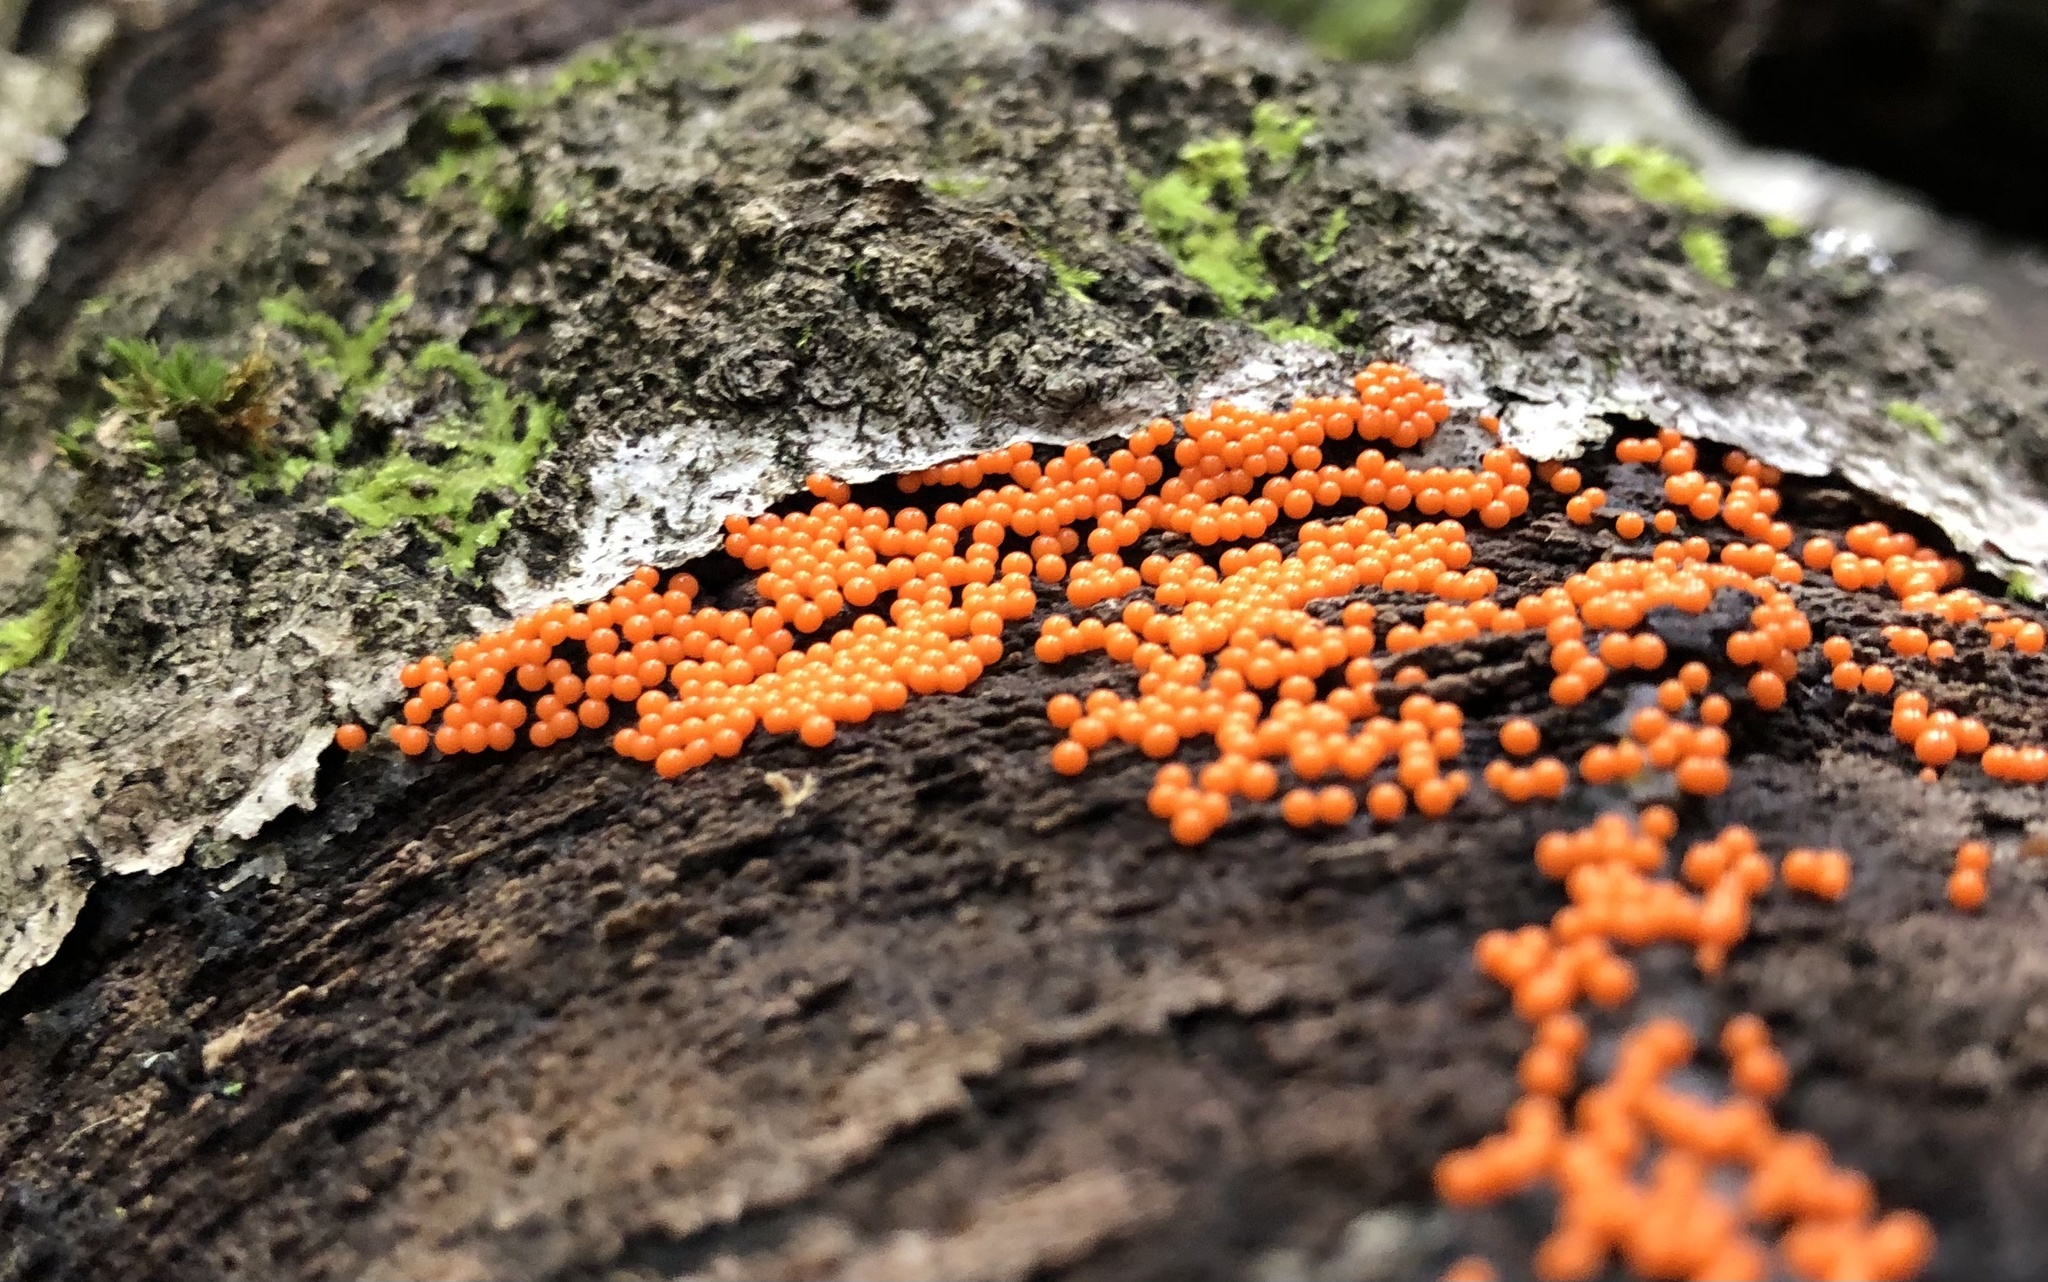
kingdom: Protozoa
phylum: Mycetozoa
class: Myxomycetes
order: Trichiales
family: Arcyriaceae
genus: Hemitrichia
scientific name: Hemitrichia decipiens
